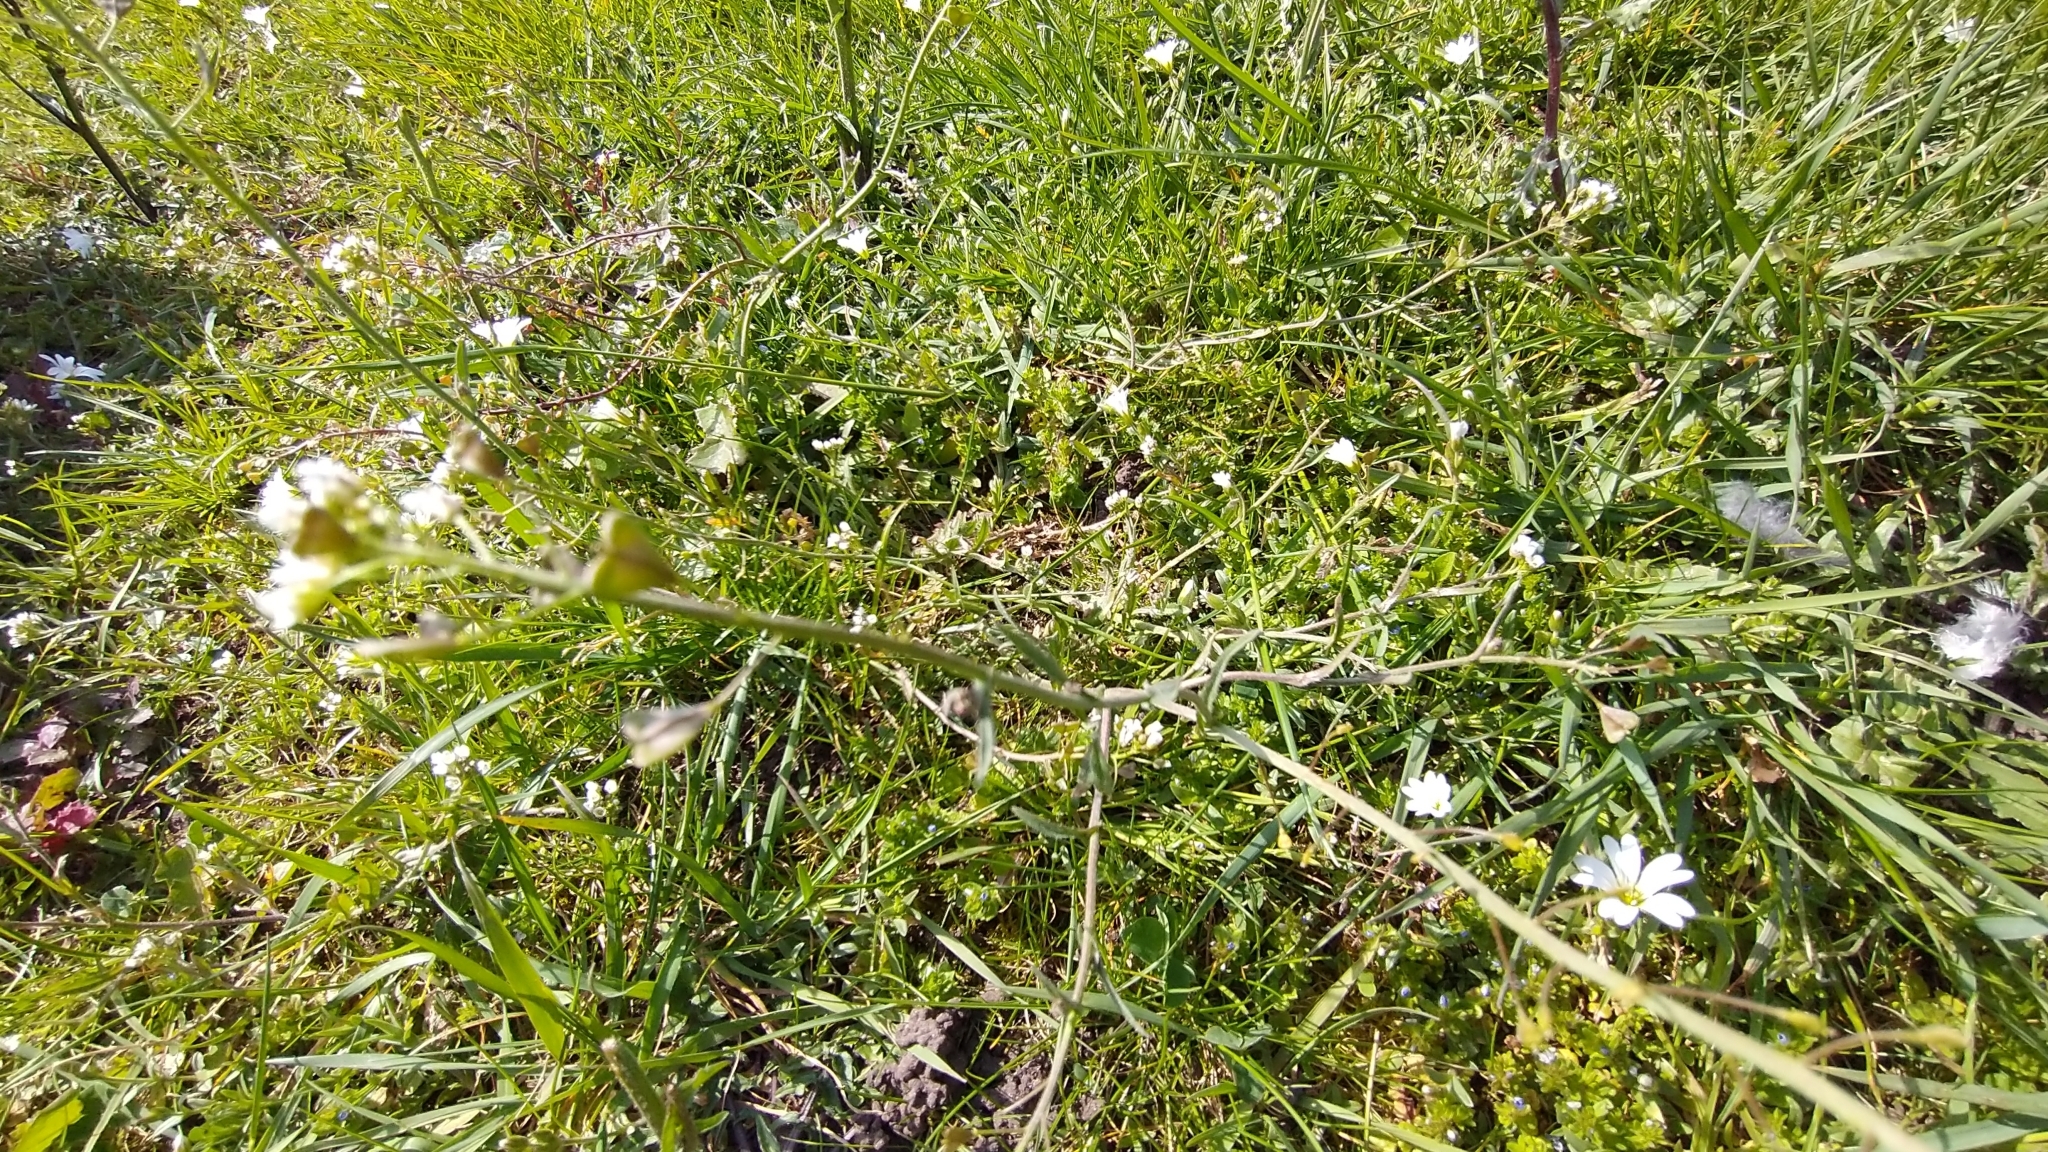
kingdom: Plantae
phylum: Tracheophyta
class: Magnoliopsida
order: Brassicales
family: Brassicaceae
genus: Capsella
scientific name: Capsella bursa-pastoris
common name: Shepherd's purse
